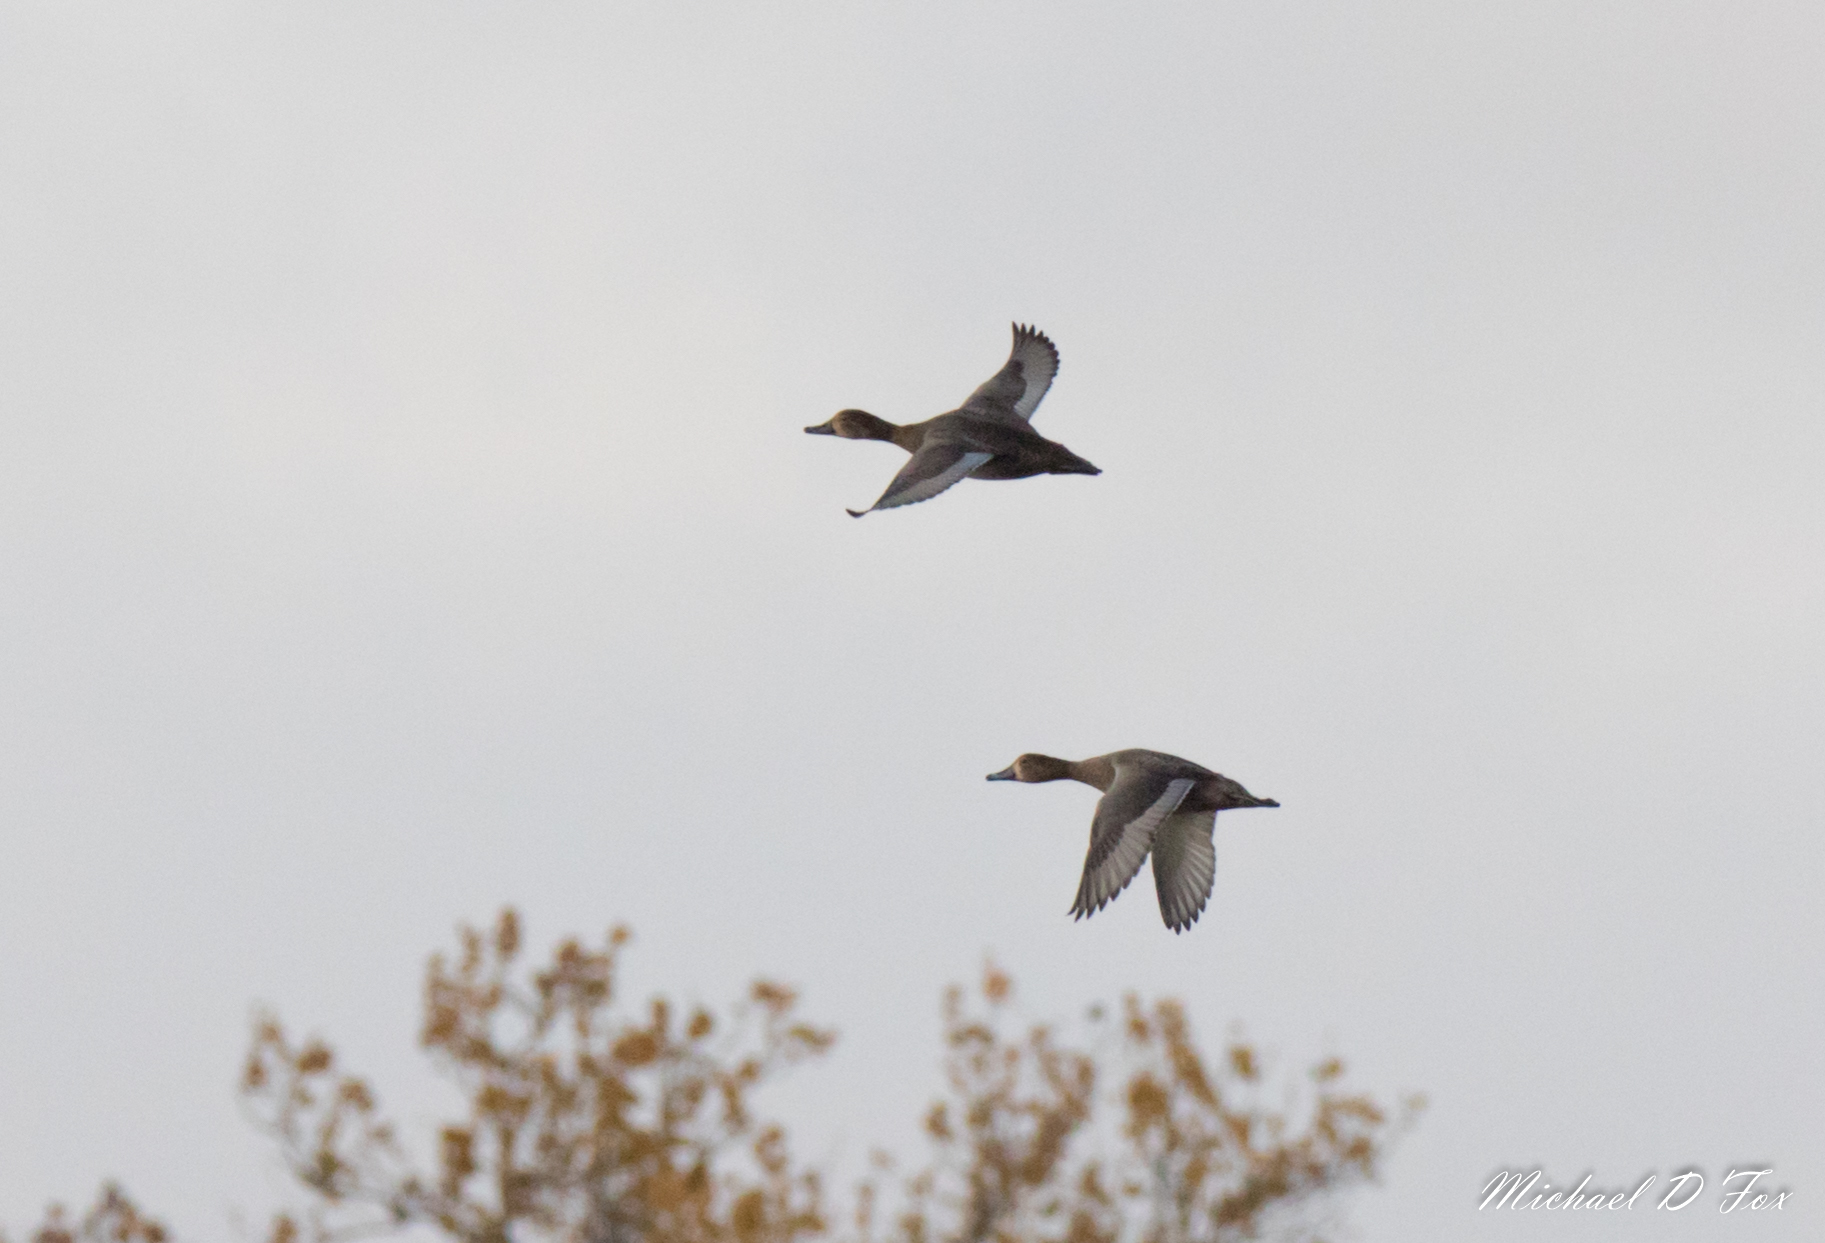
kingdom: Animalia
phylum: Chordata
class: Aves
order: Anseriformes
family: Anatidae
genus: Aythya
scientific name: Aythya americana
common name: Redhead
